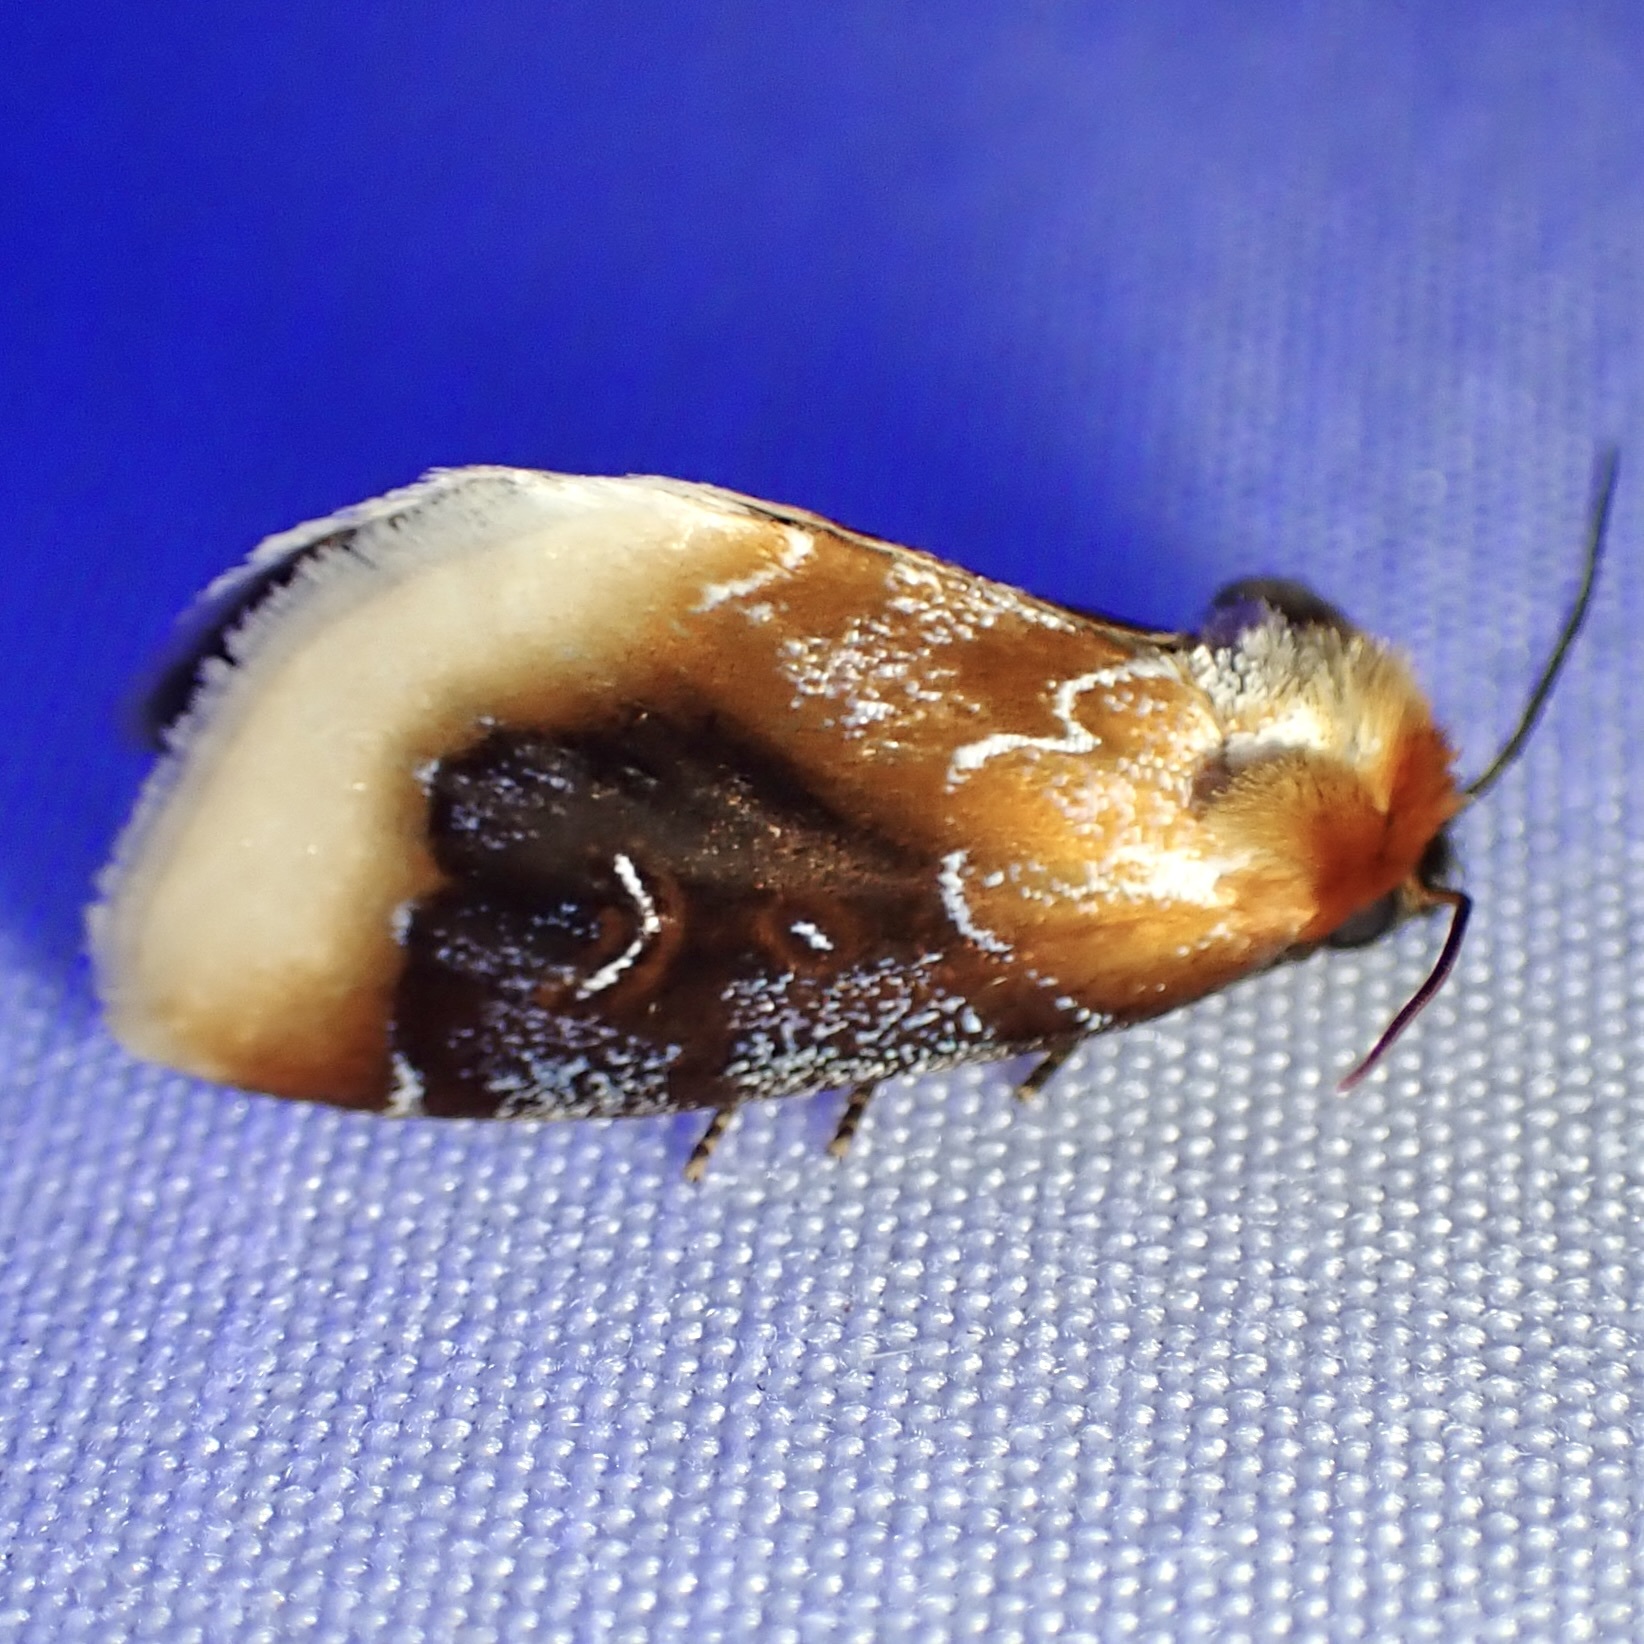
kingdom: Animalia
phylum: Arthropoda
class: Insecta
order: Lepidoptera
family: Noctuidae
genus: Chrysoecia
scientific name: Chrysoecia scira
